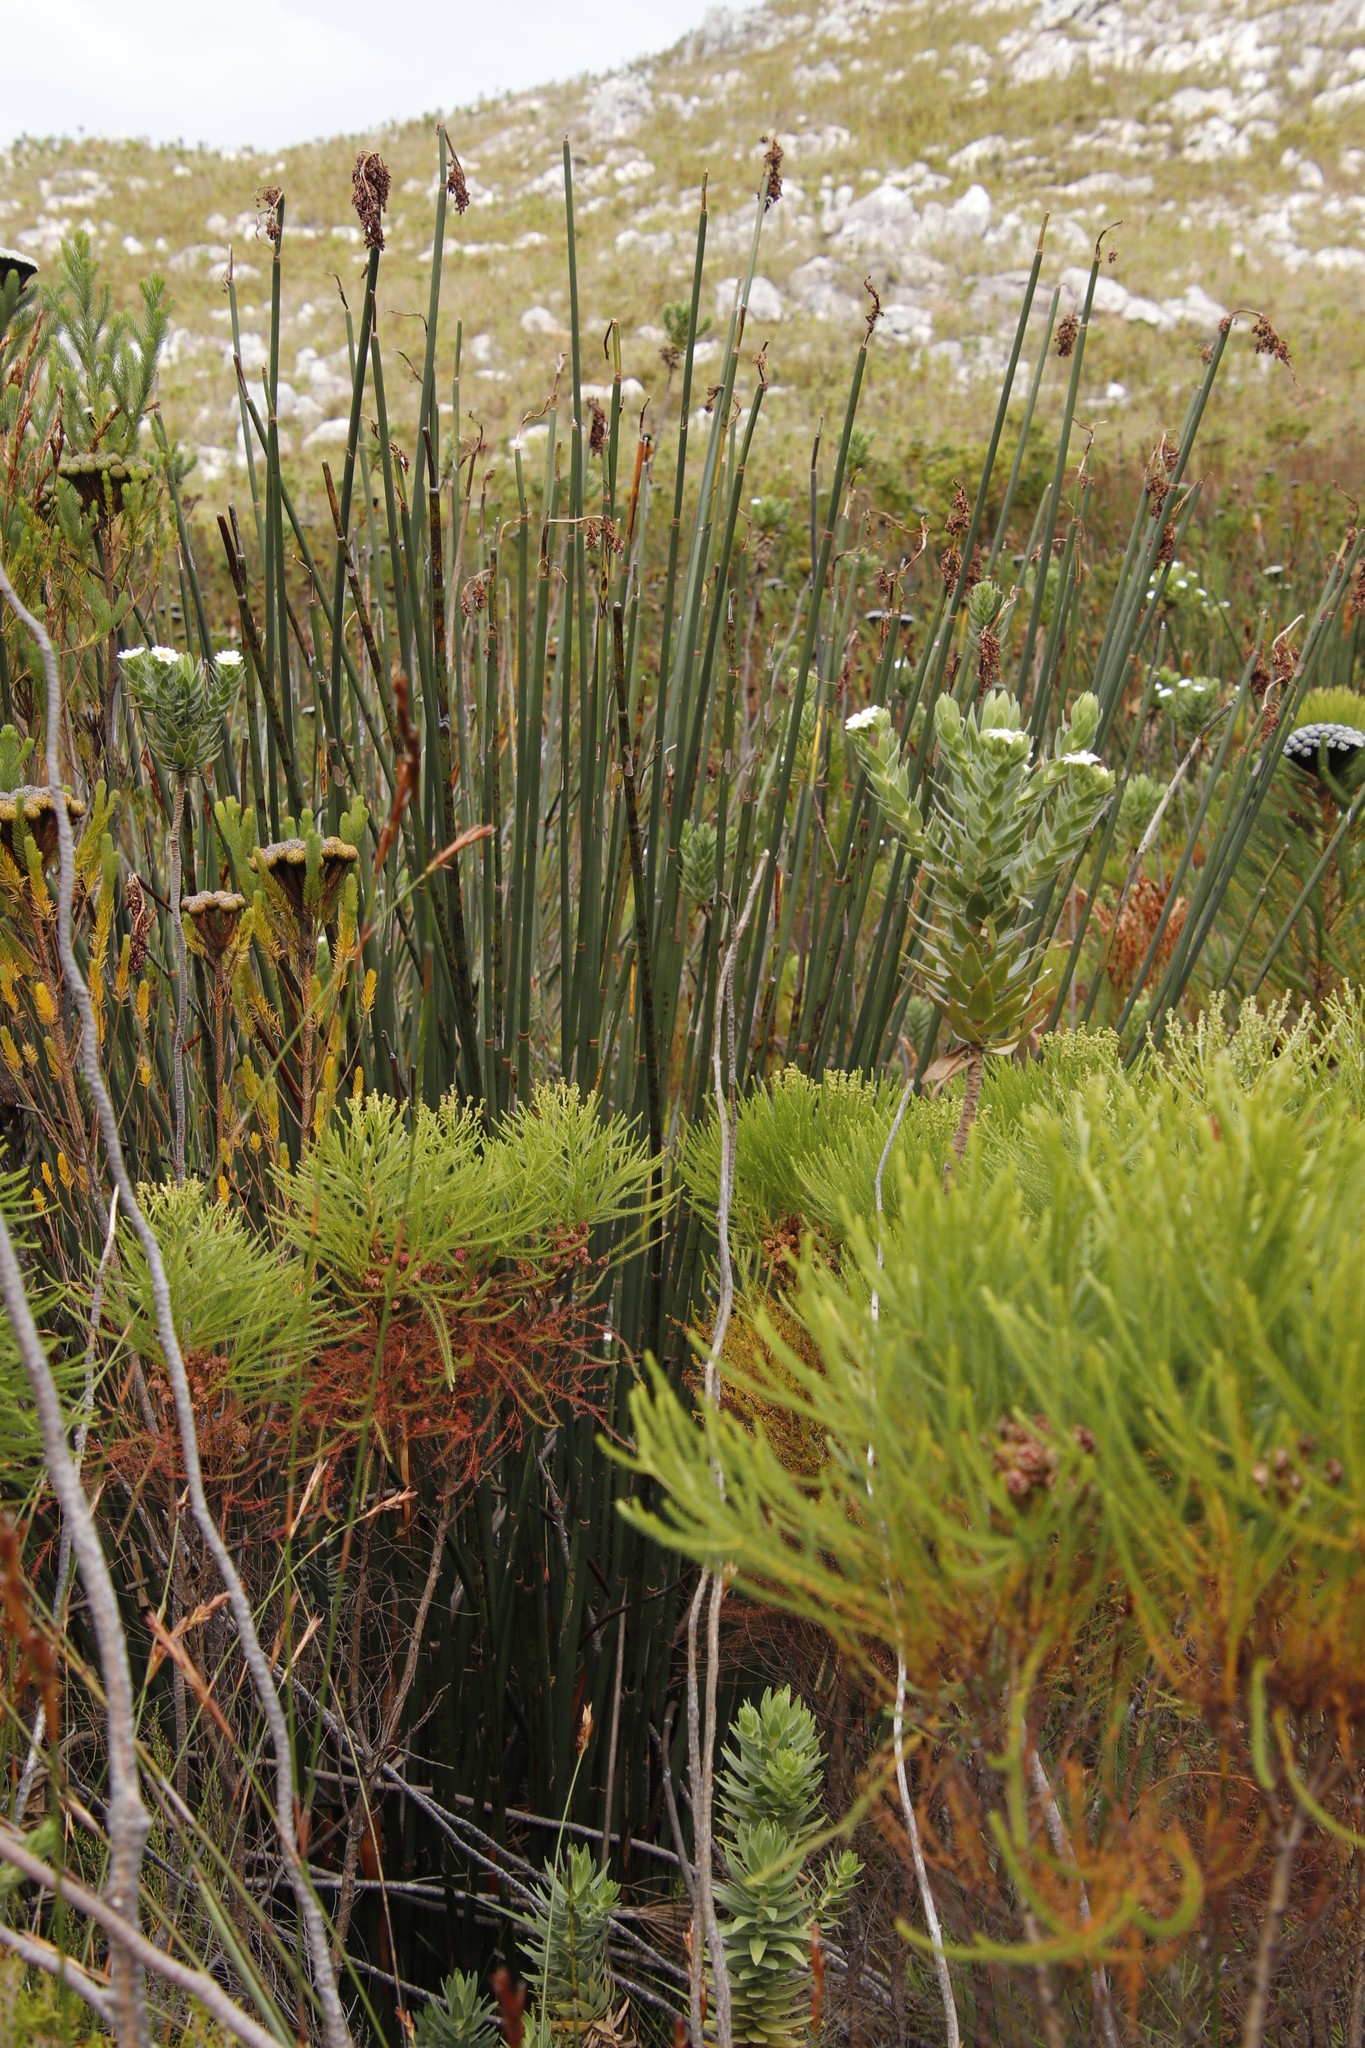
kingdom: Plantae
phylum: Tracheophyta
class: Liliopsida
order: Poales
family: Restionaceae
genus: Elegia
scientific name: Elegia mucronata
